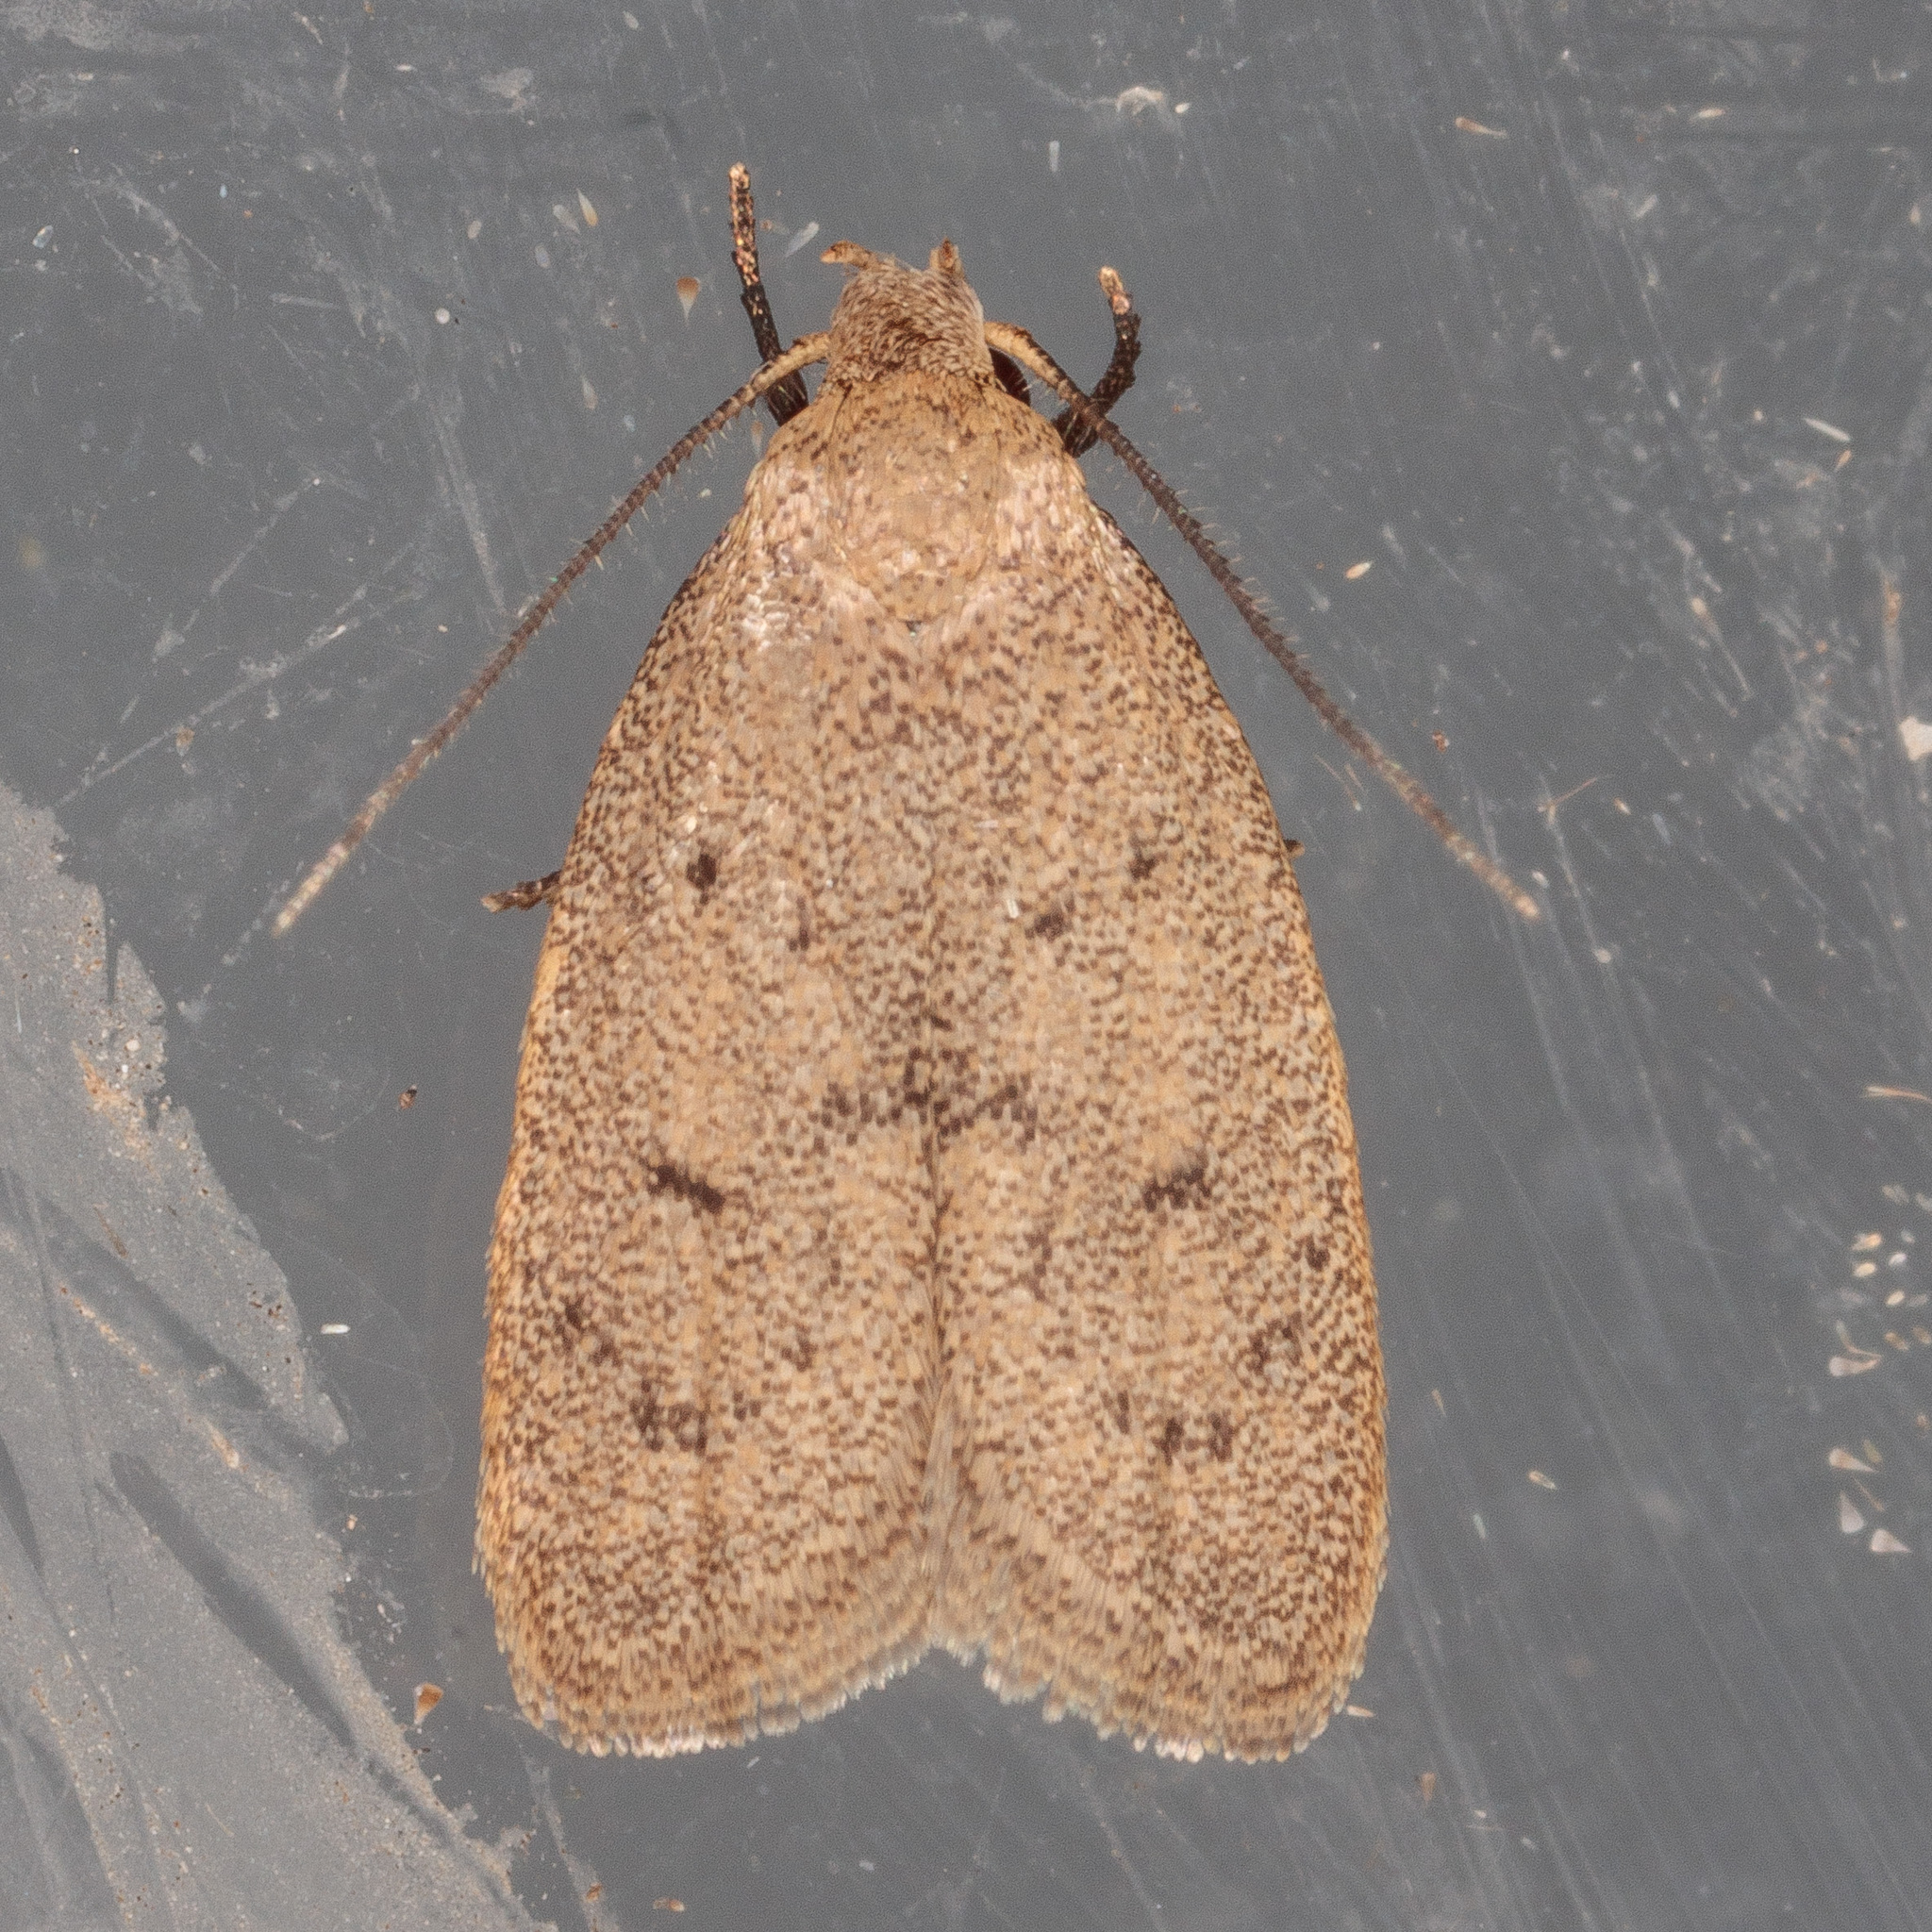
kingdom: Animalia
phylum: Arthropoda
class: Insecta
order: Lepidoptera
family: Oecophoridae
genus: Inga
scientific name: Inga obscuromaculella
